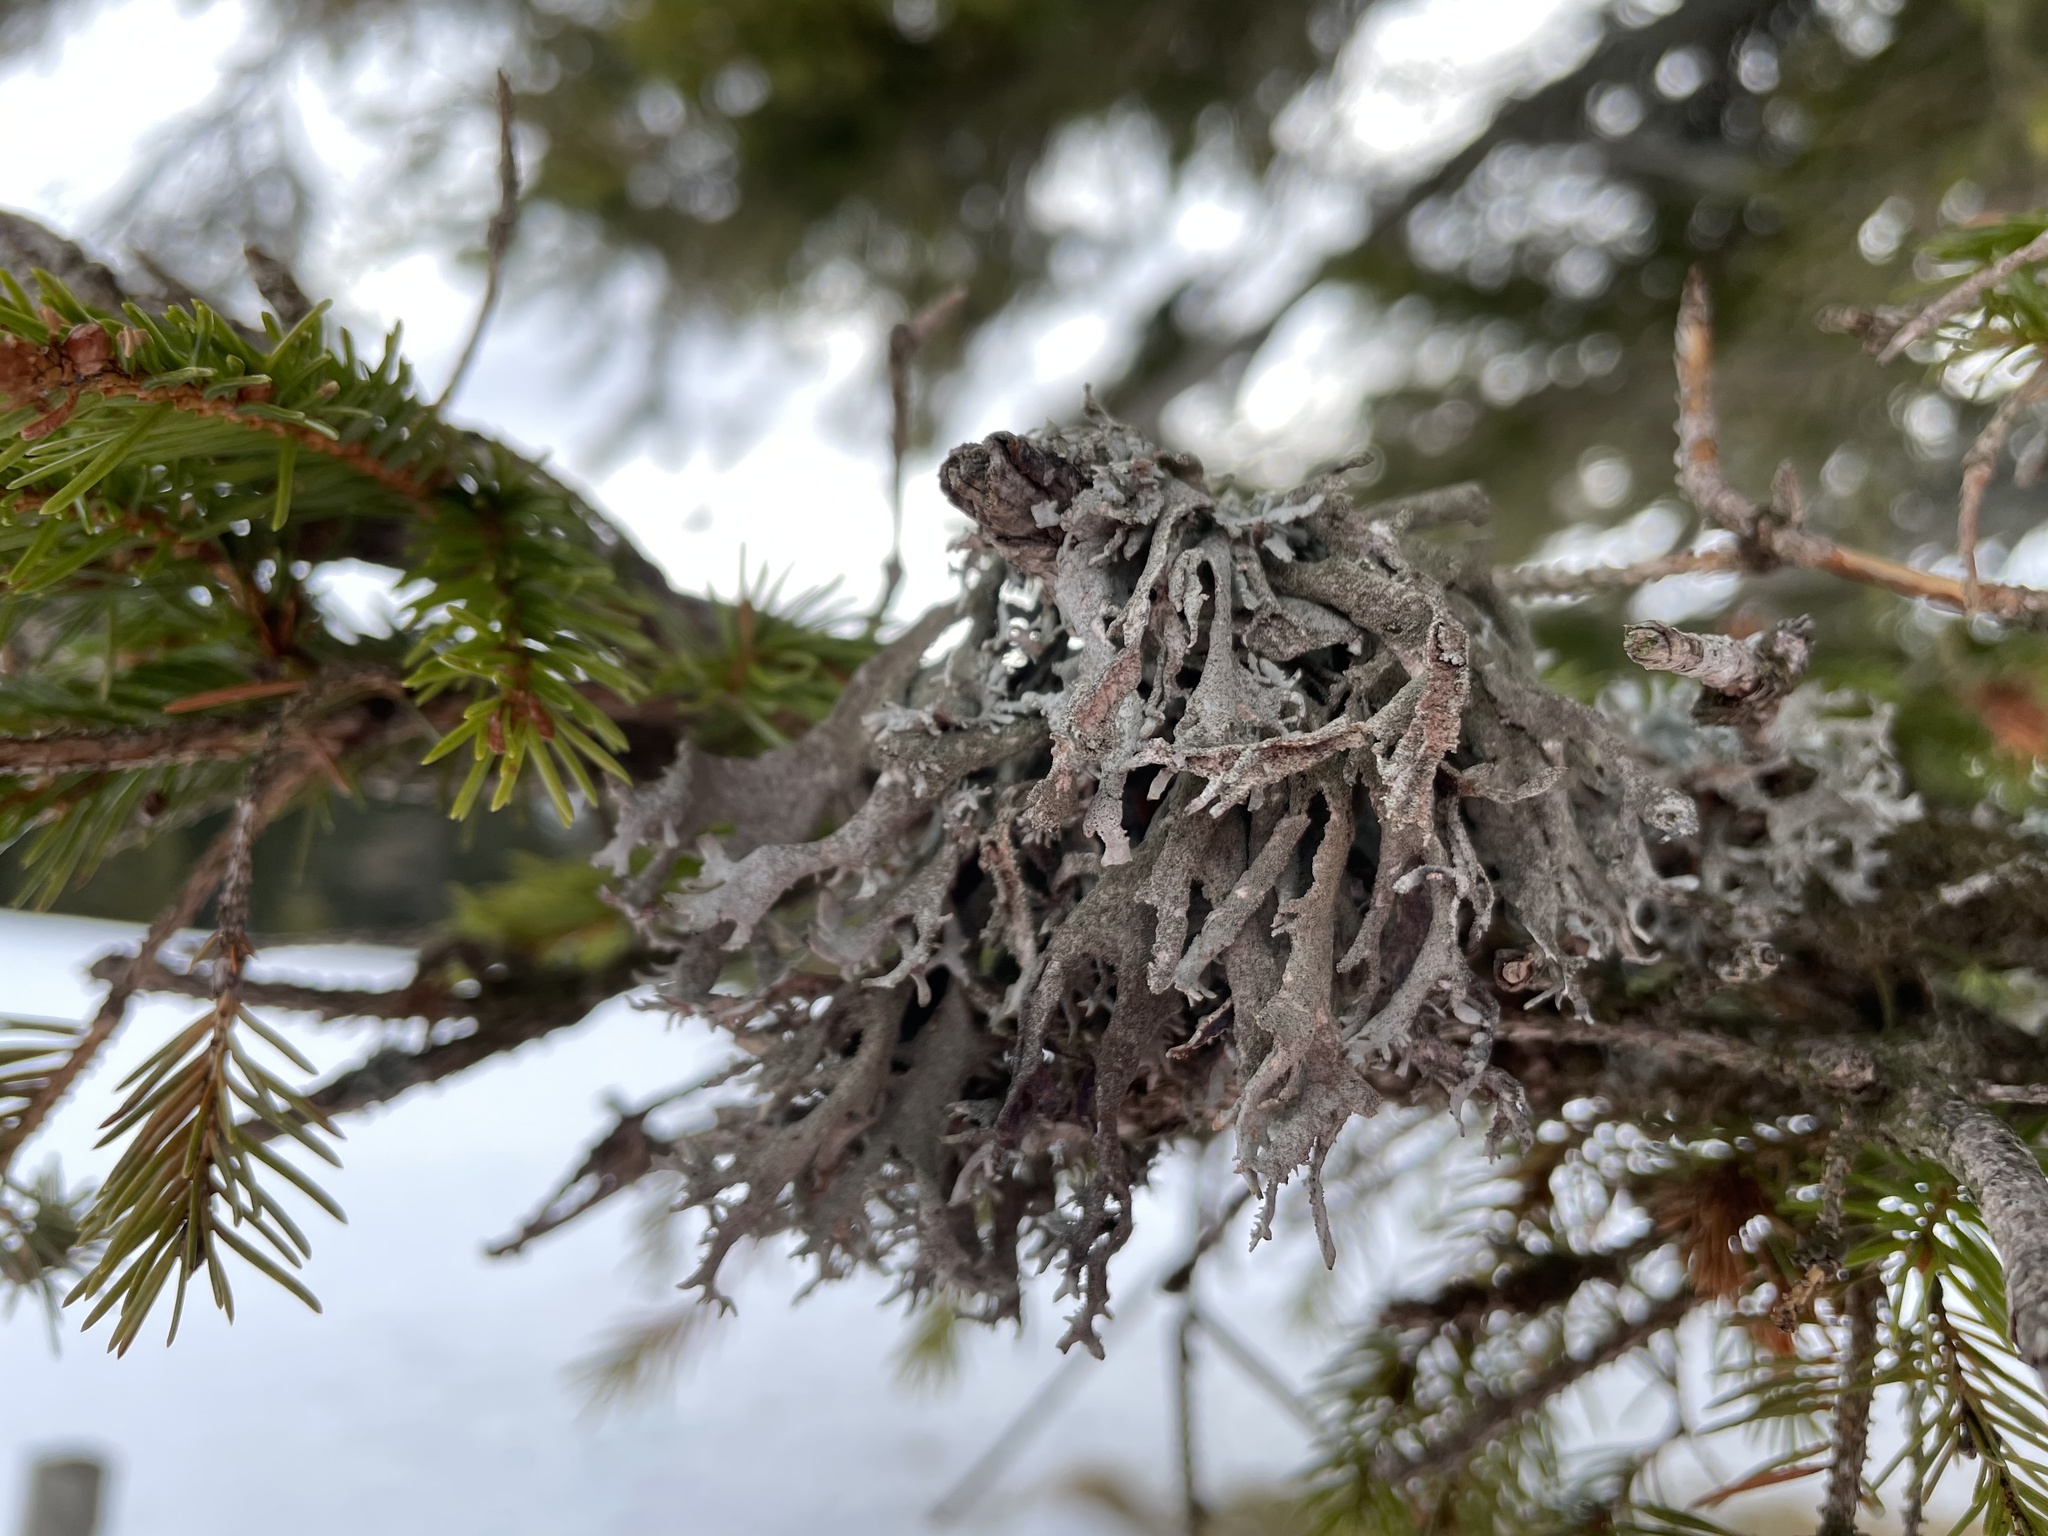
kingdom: Fungi
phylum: Ascomycota
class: Lecanoromycetes
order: Lecanorales
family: Parmeliaceae
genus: Pseudevernia
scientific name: Pseudevernia furfuracea
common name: Tree moss
